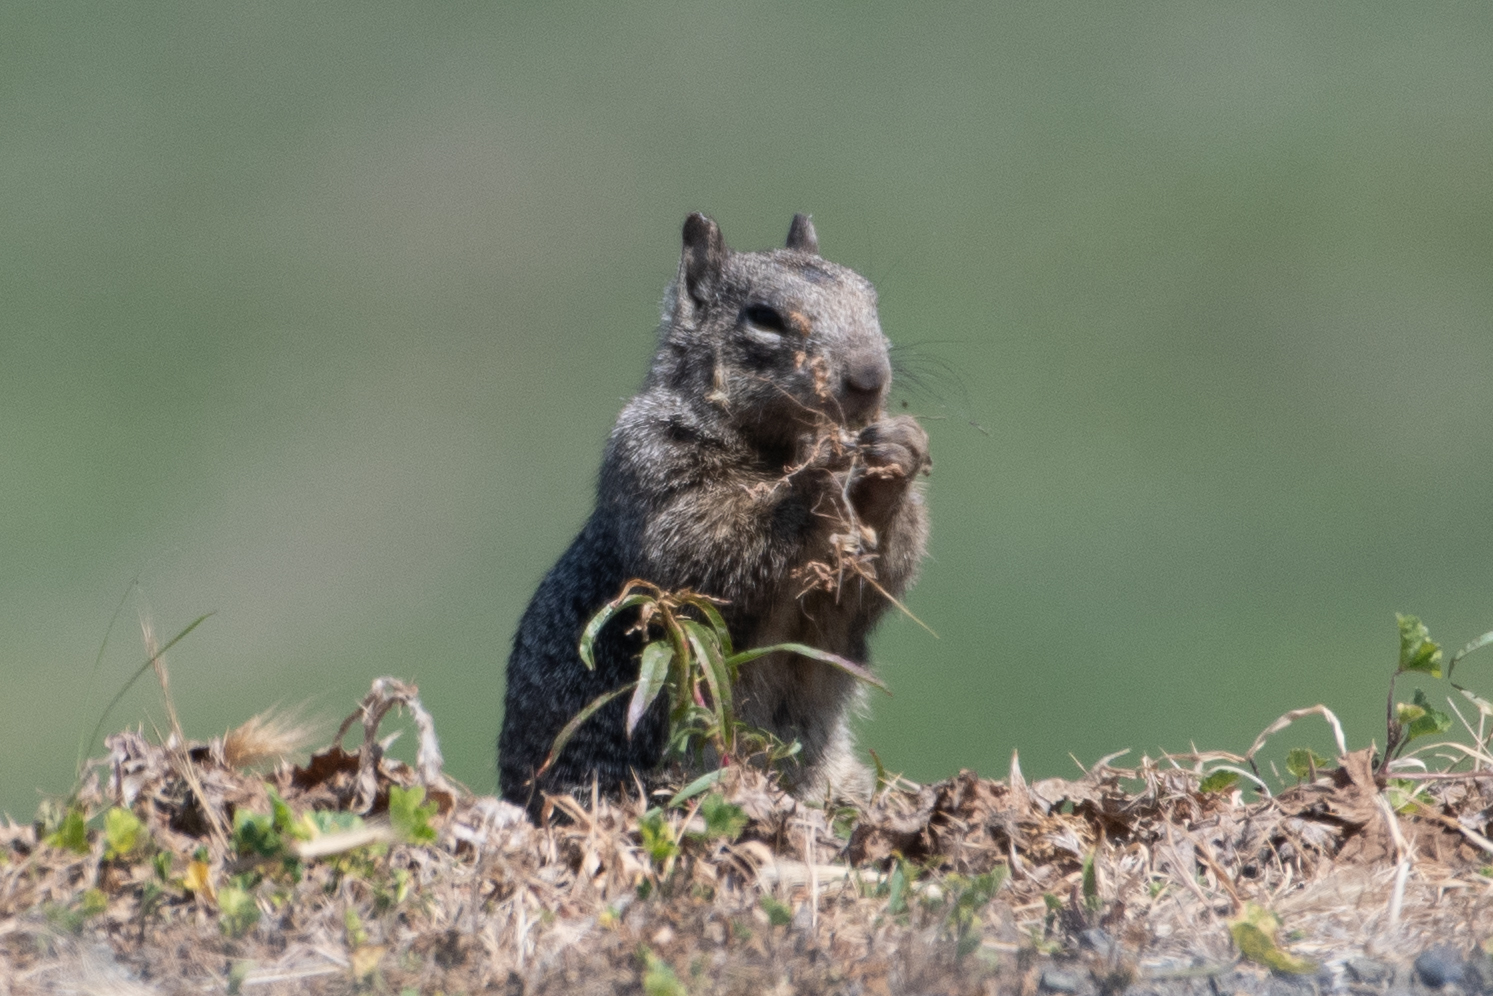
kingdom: Animalia
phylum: Chordata
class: Mammalia
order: Rodentia
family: Sciuridae
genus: Otospermophilus
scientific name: Otospermophilus beecheyi
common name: California ground squirrel
